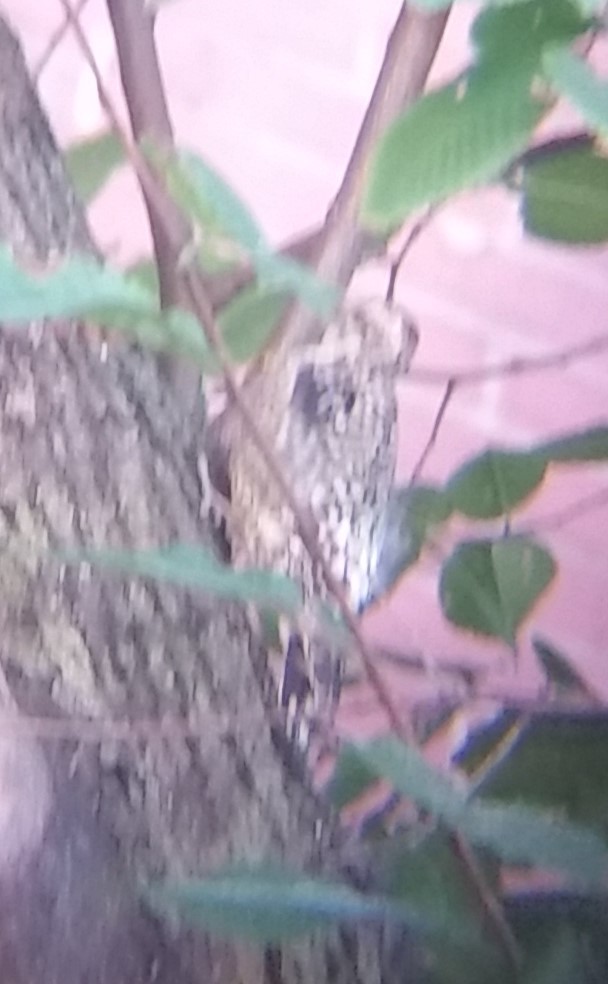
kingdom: Animalia
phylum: Chordata
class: Aves
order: Piciformes
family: Picidae
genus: Sphyrapicus
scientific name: Sphyrapicus varius
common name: Yellow-bellied sapsucker
